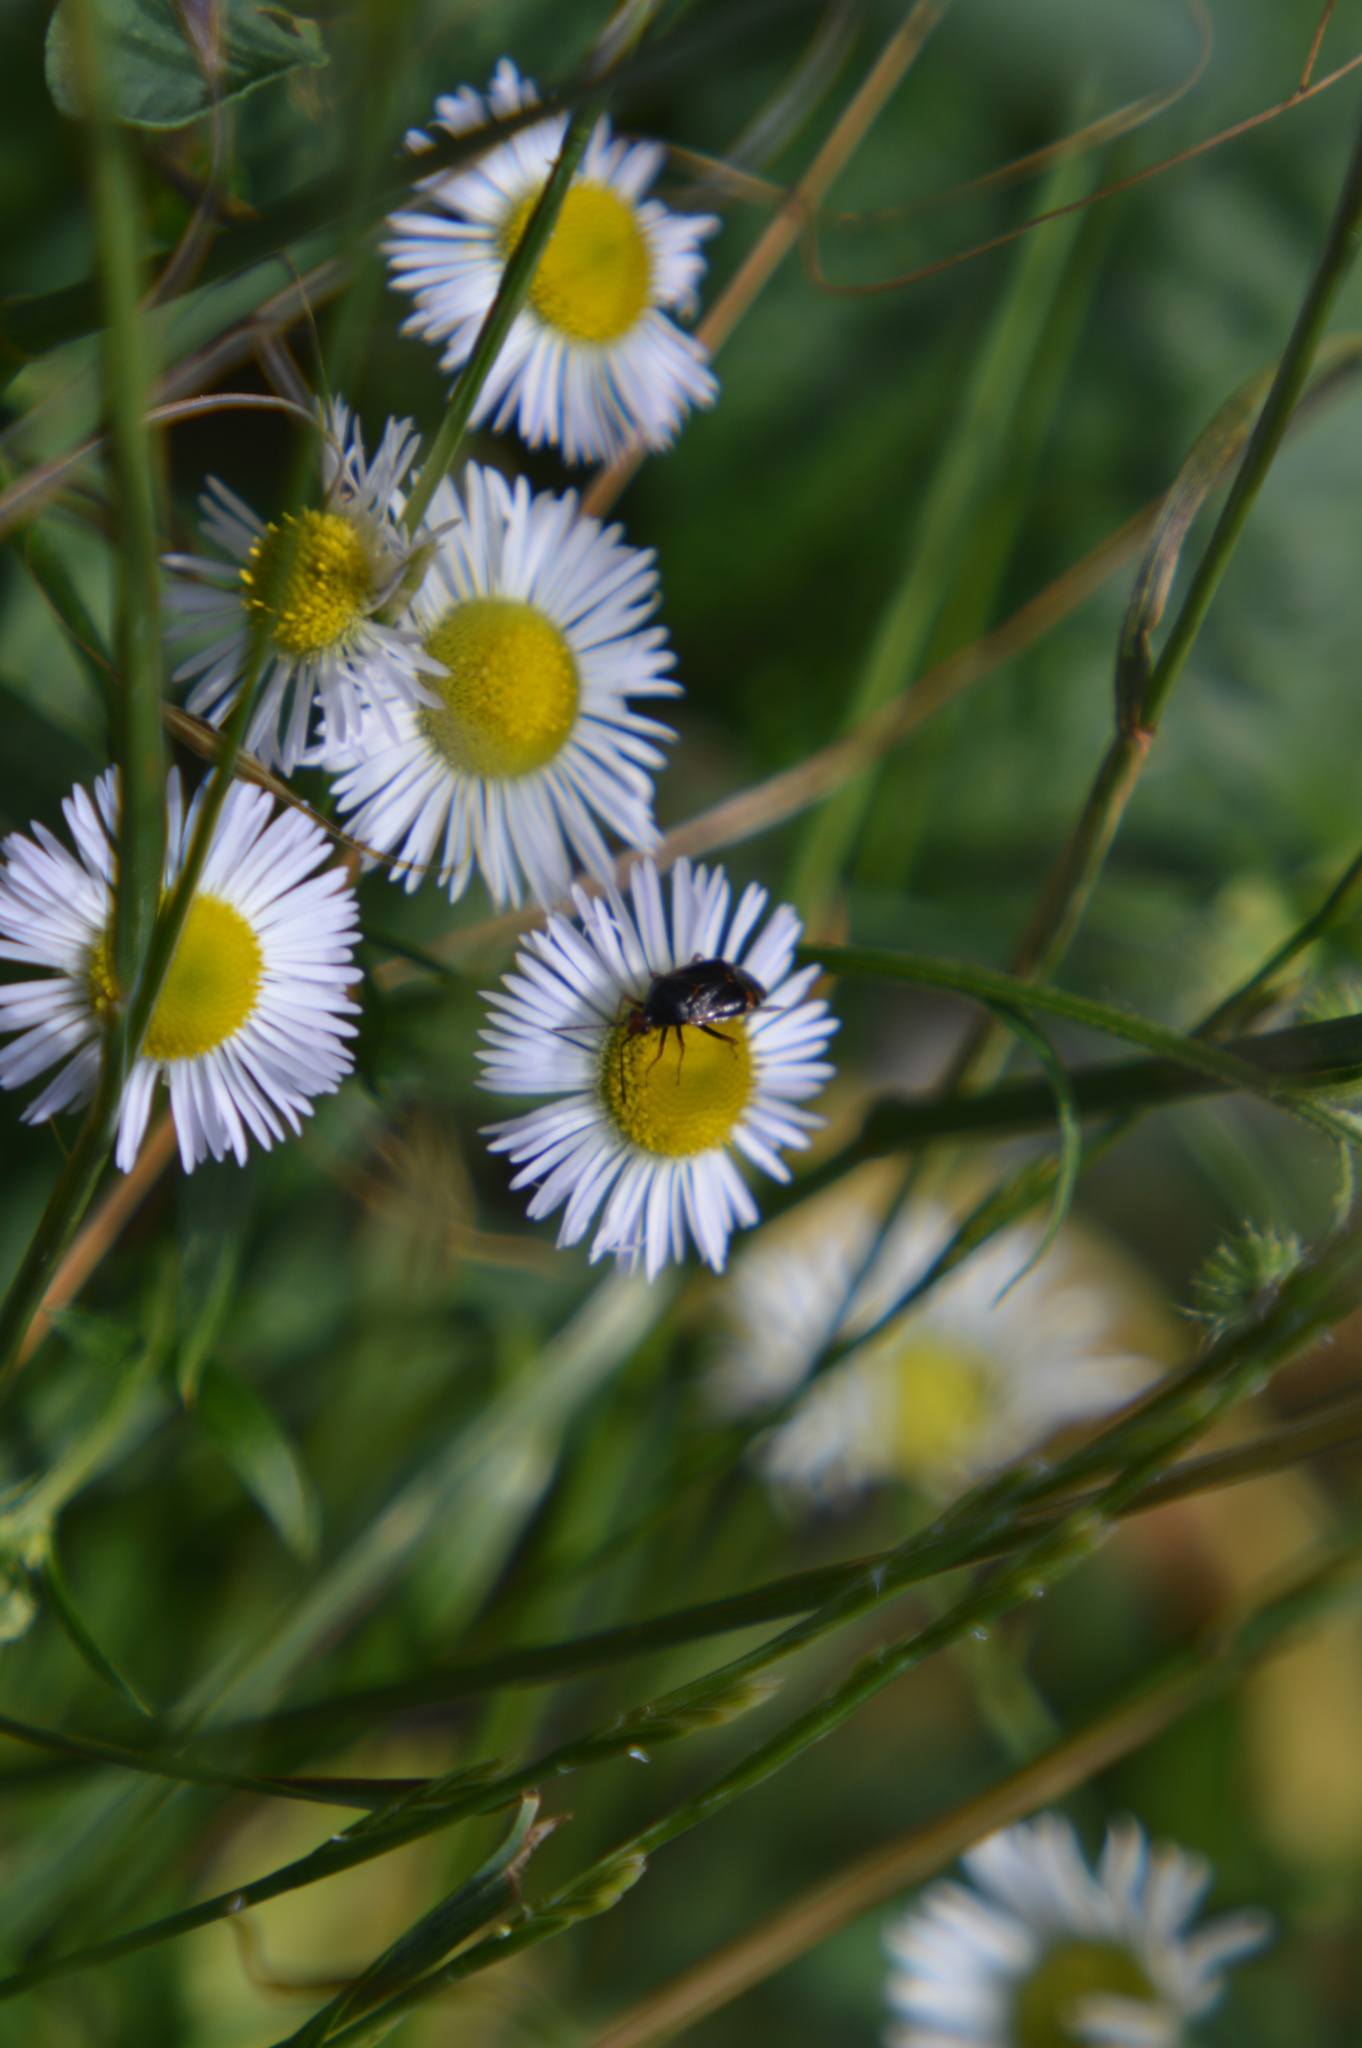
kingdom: Plantae
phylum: Tracheophyta
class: Magnoliopsida
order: Asterales
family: Asteraceae
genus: Erigeron
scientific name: Erigeron annuus
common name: Tall fleabane
